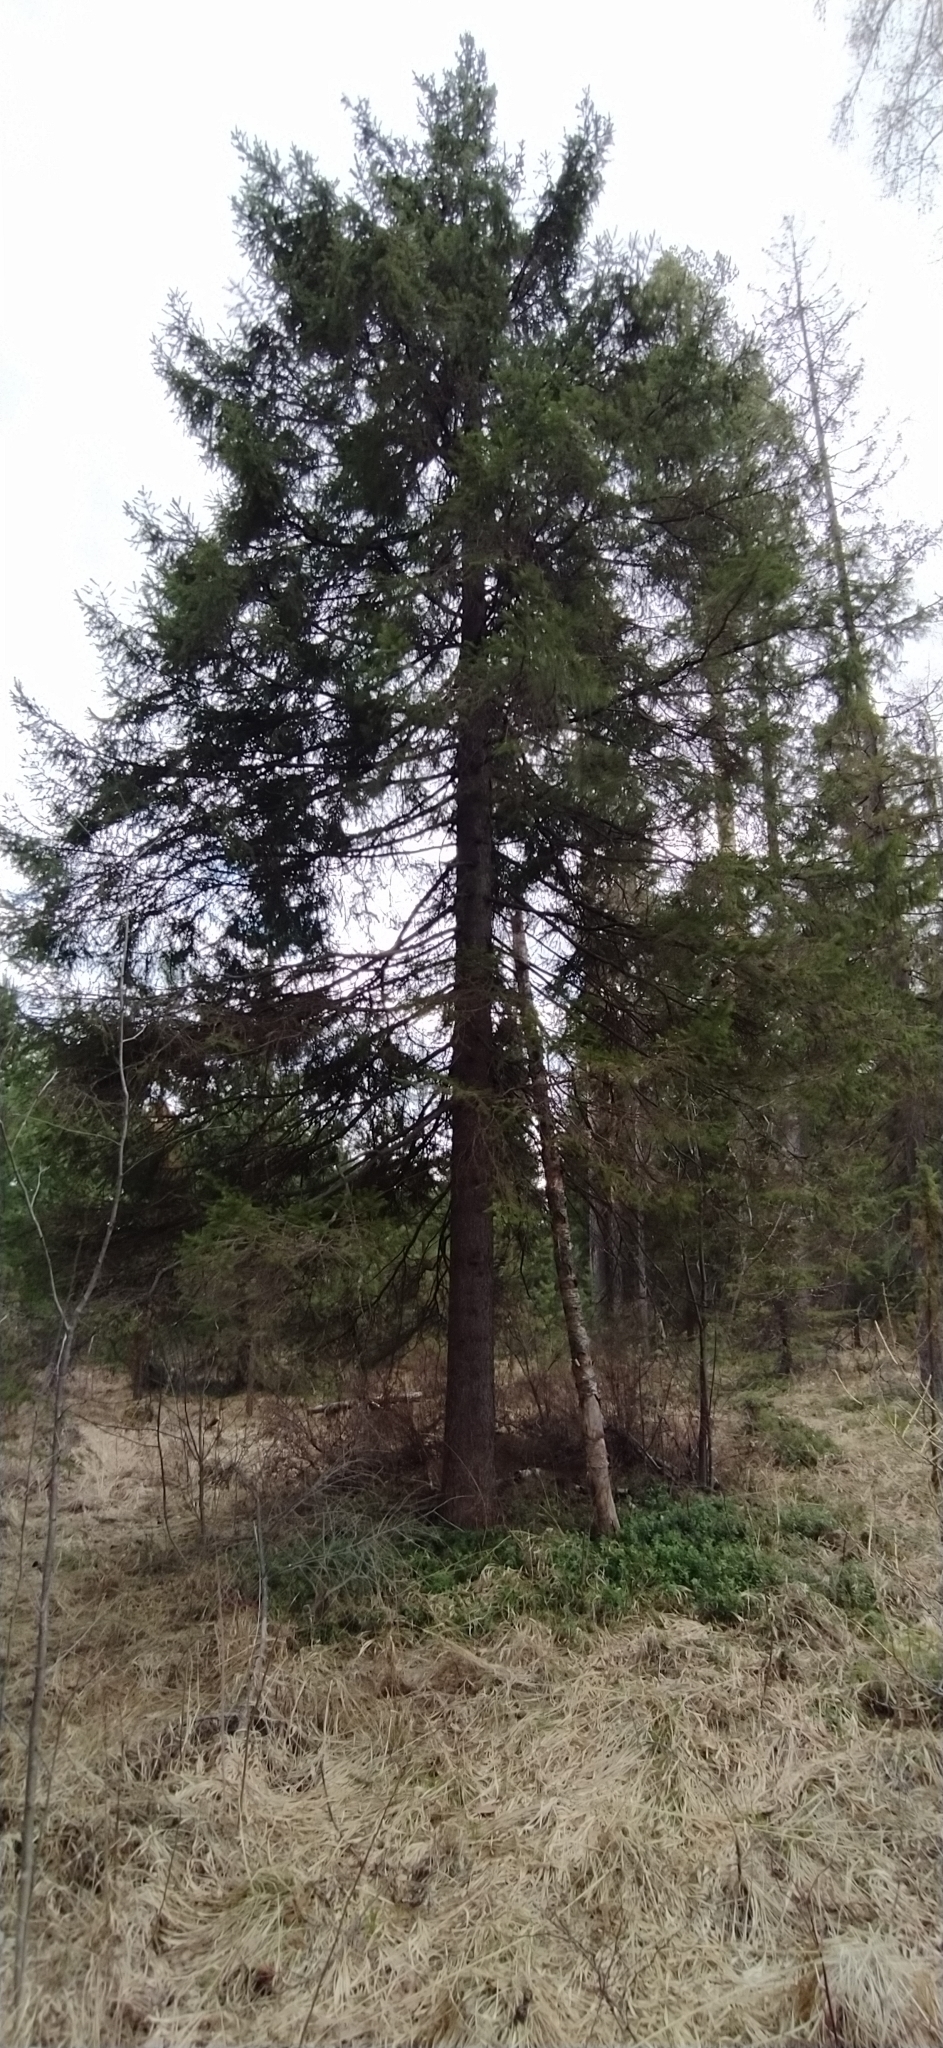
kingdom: Plantae
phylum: Tracheophyta
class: Pinopsida
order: Pinales
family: Pinaceae
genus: Picea
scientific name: Picea obovata
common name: Siberian spruce
